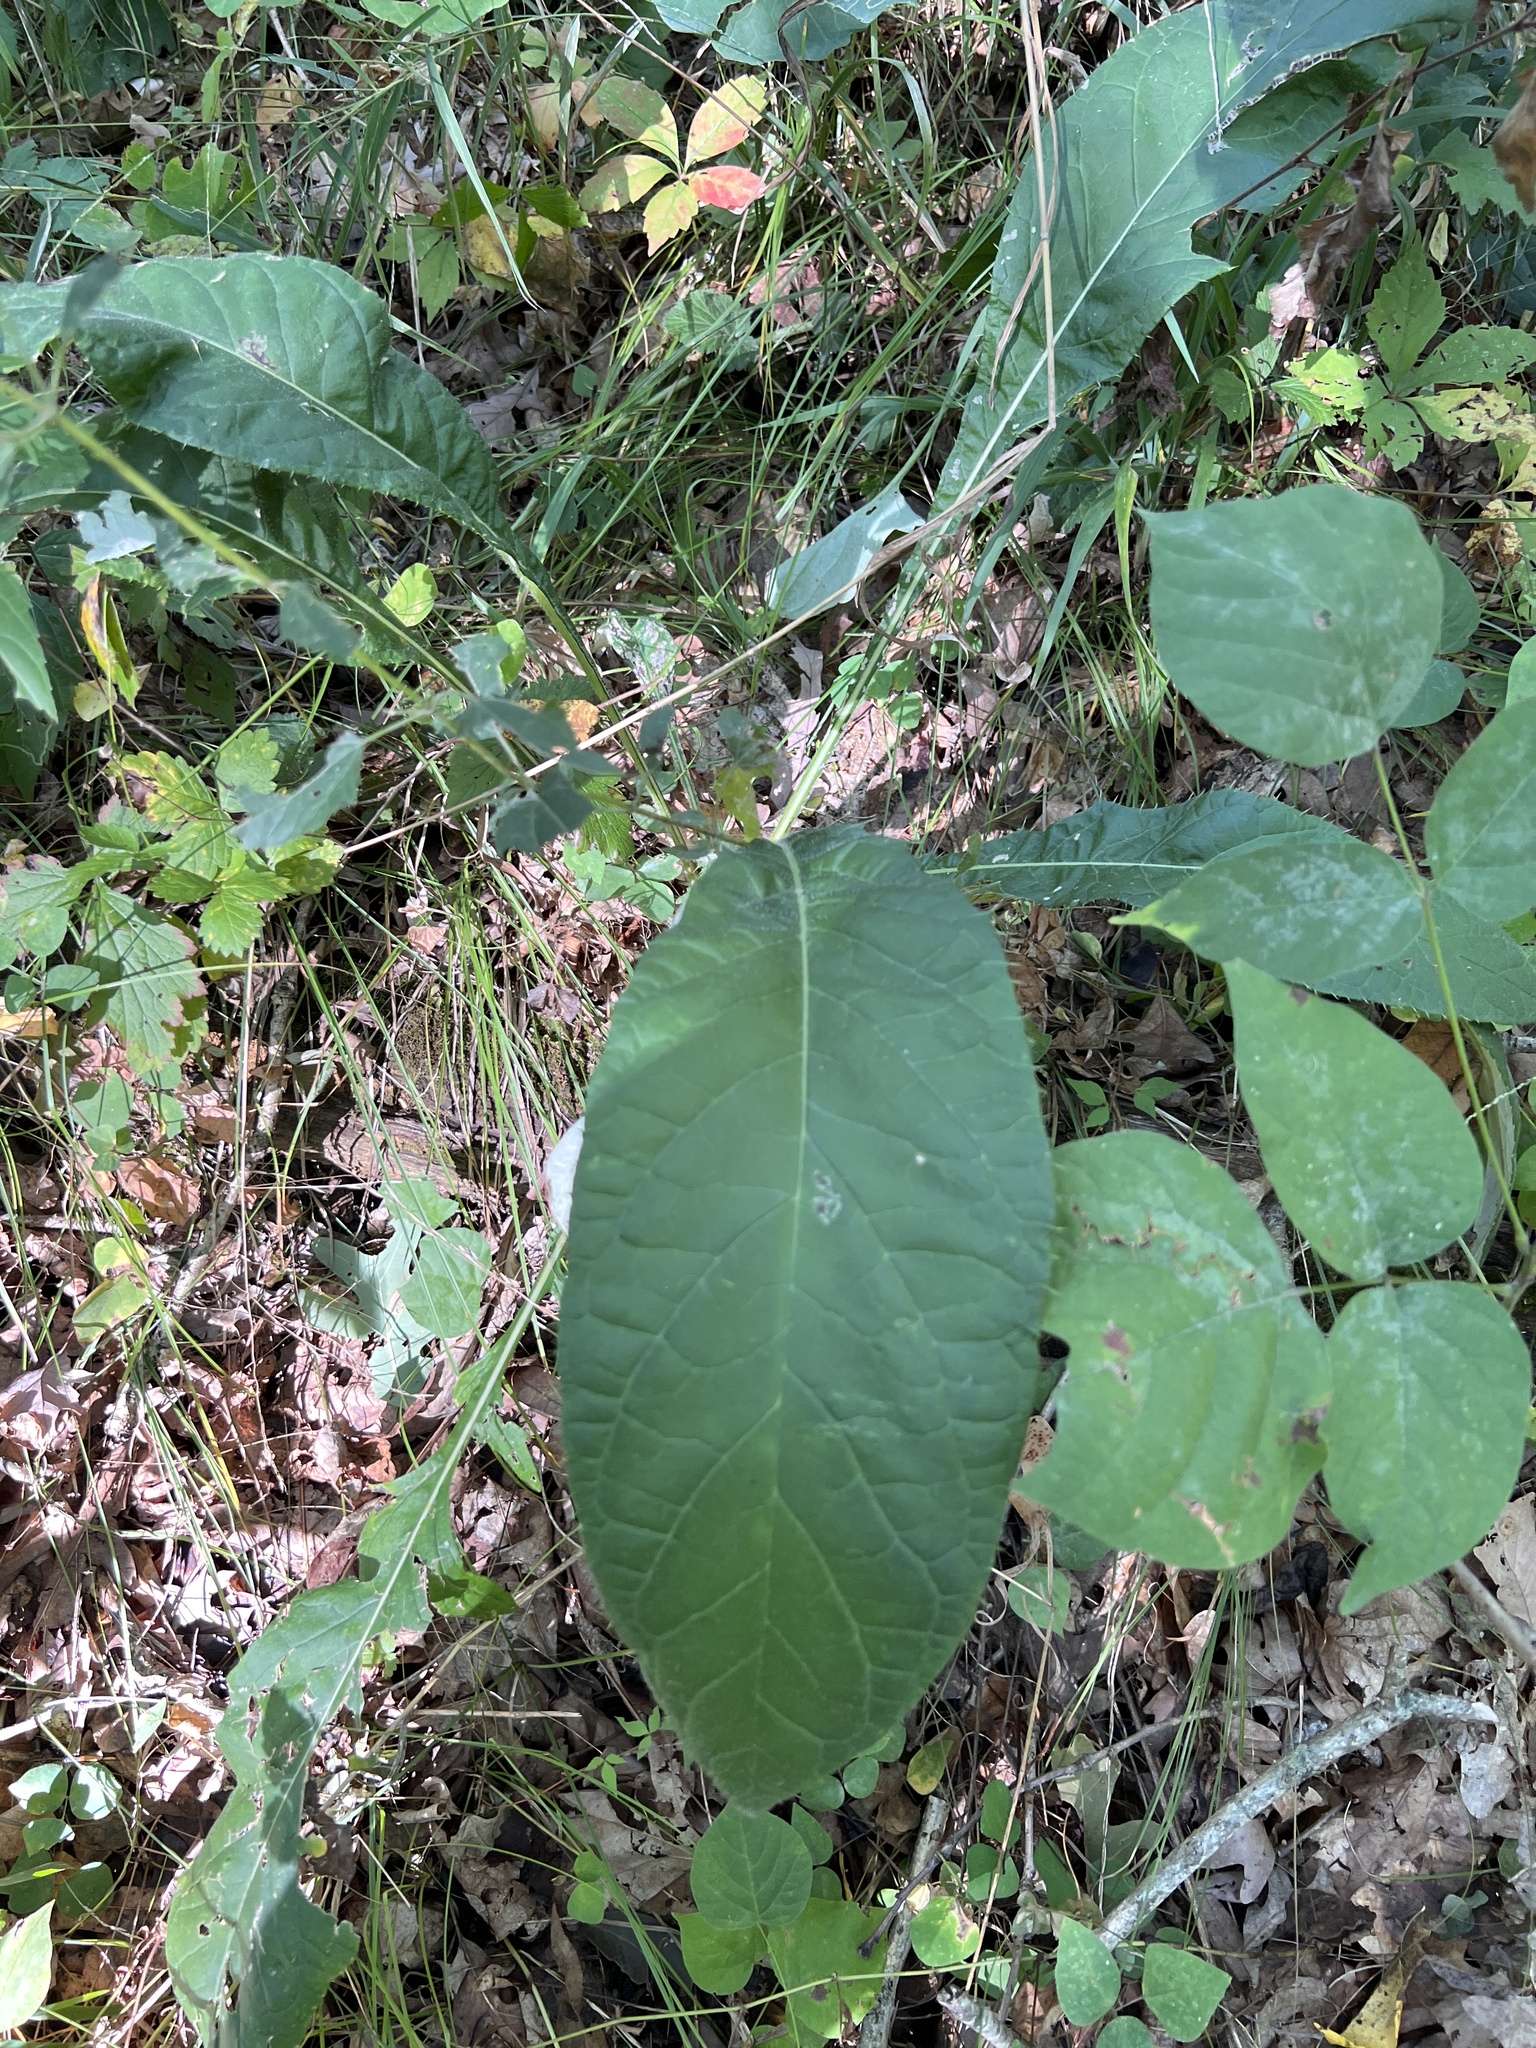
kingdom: Plantae
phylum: Tracheophyta
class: Magnoliopsida
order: Asterales
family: Asteraceae
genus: Cirsium
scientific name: Cirsium altissimum
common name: Roadside thistle
